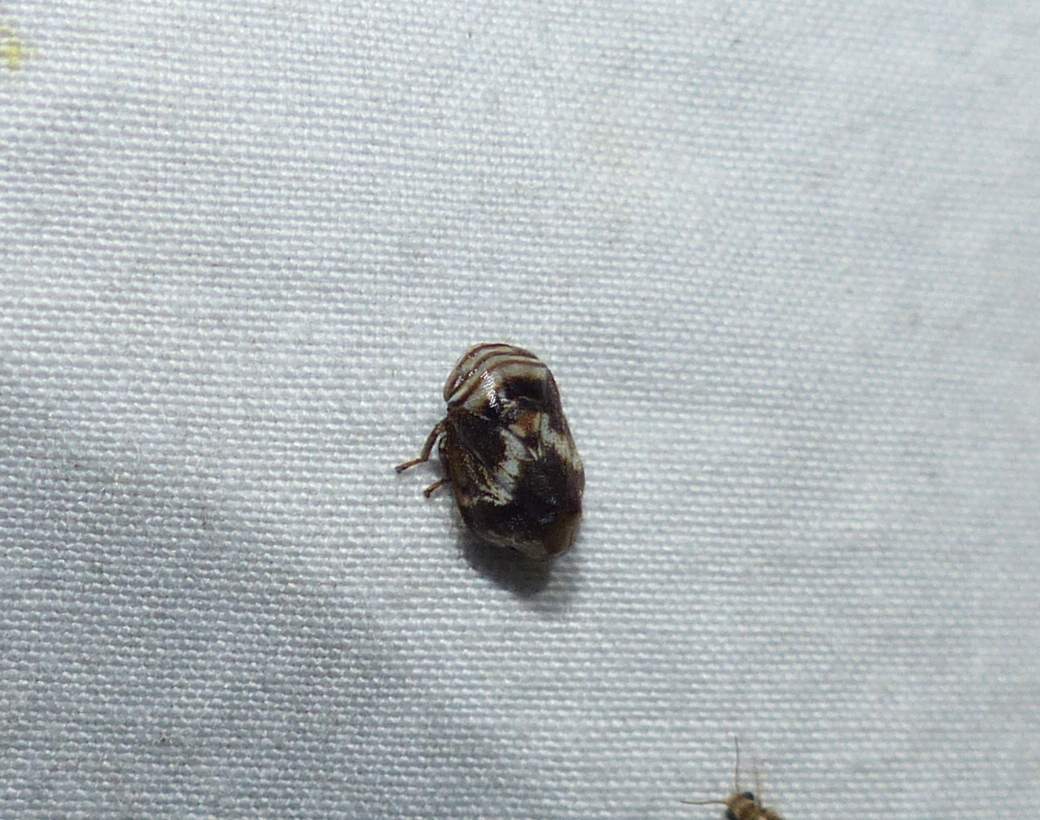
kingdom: Animalia
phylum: Arthropoda
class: Insecta
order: Hemiptera
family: Clastopteridae
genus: Clastoptera
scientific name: Clastoptera obtusa
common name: Alder spittlebug
